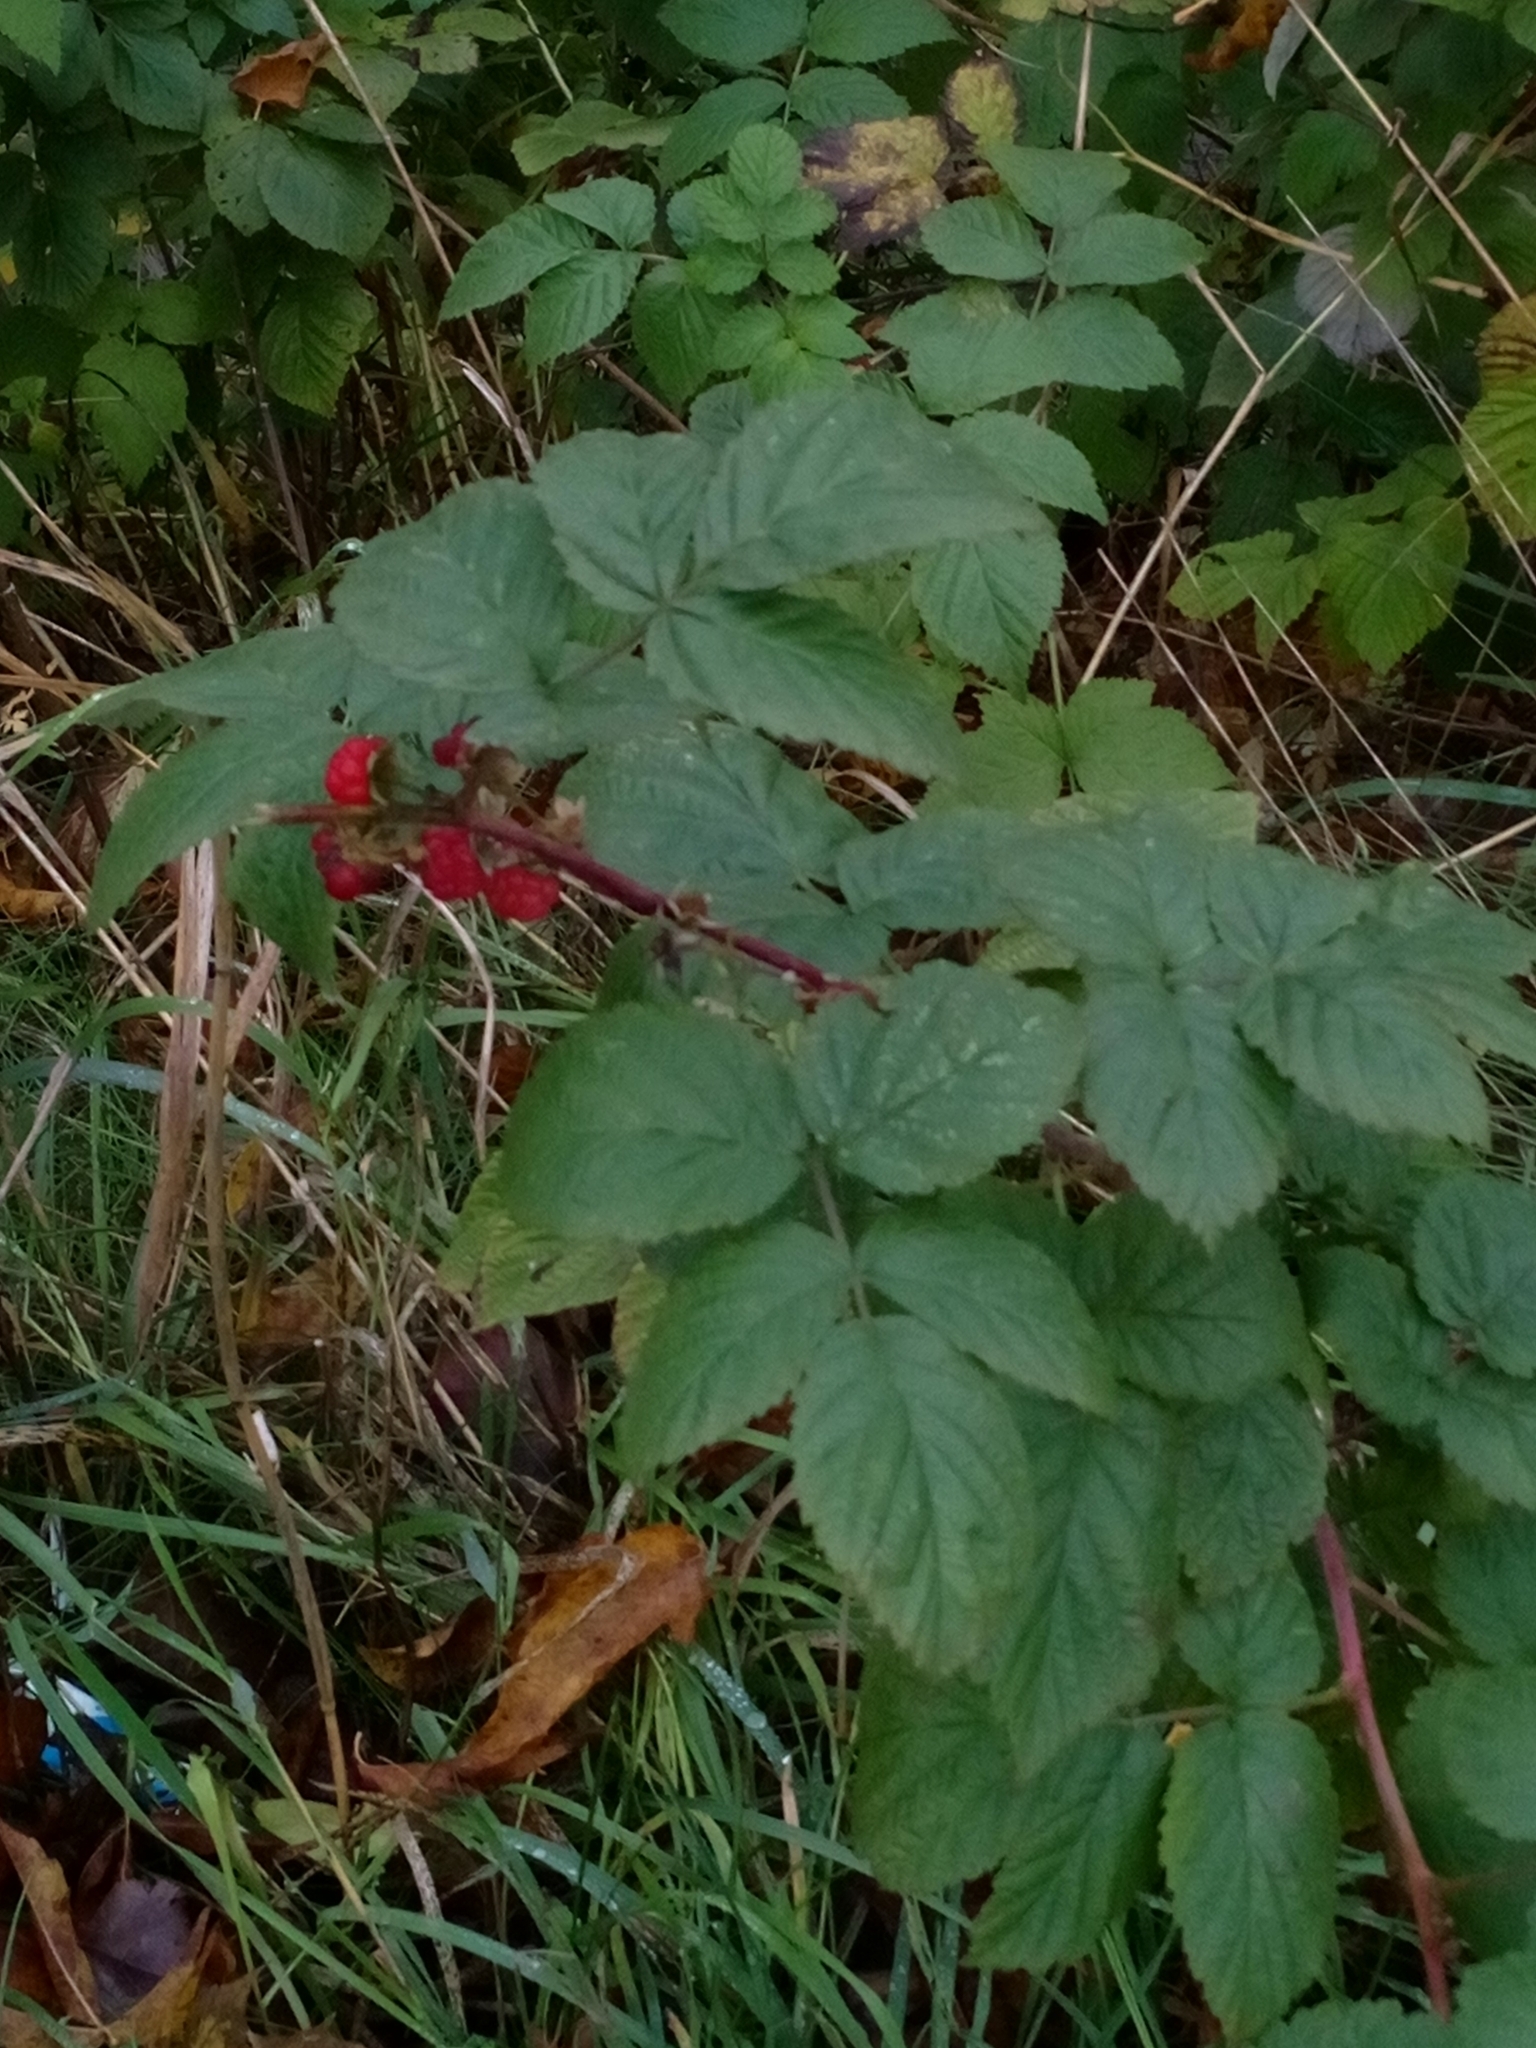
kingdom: Plantae
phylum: Tracheophyta
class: Magnoliopsida
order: Rosales
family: Rosaceae
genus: Rubus
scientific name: Rubus idaeus
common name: Raspberry
